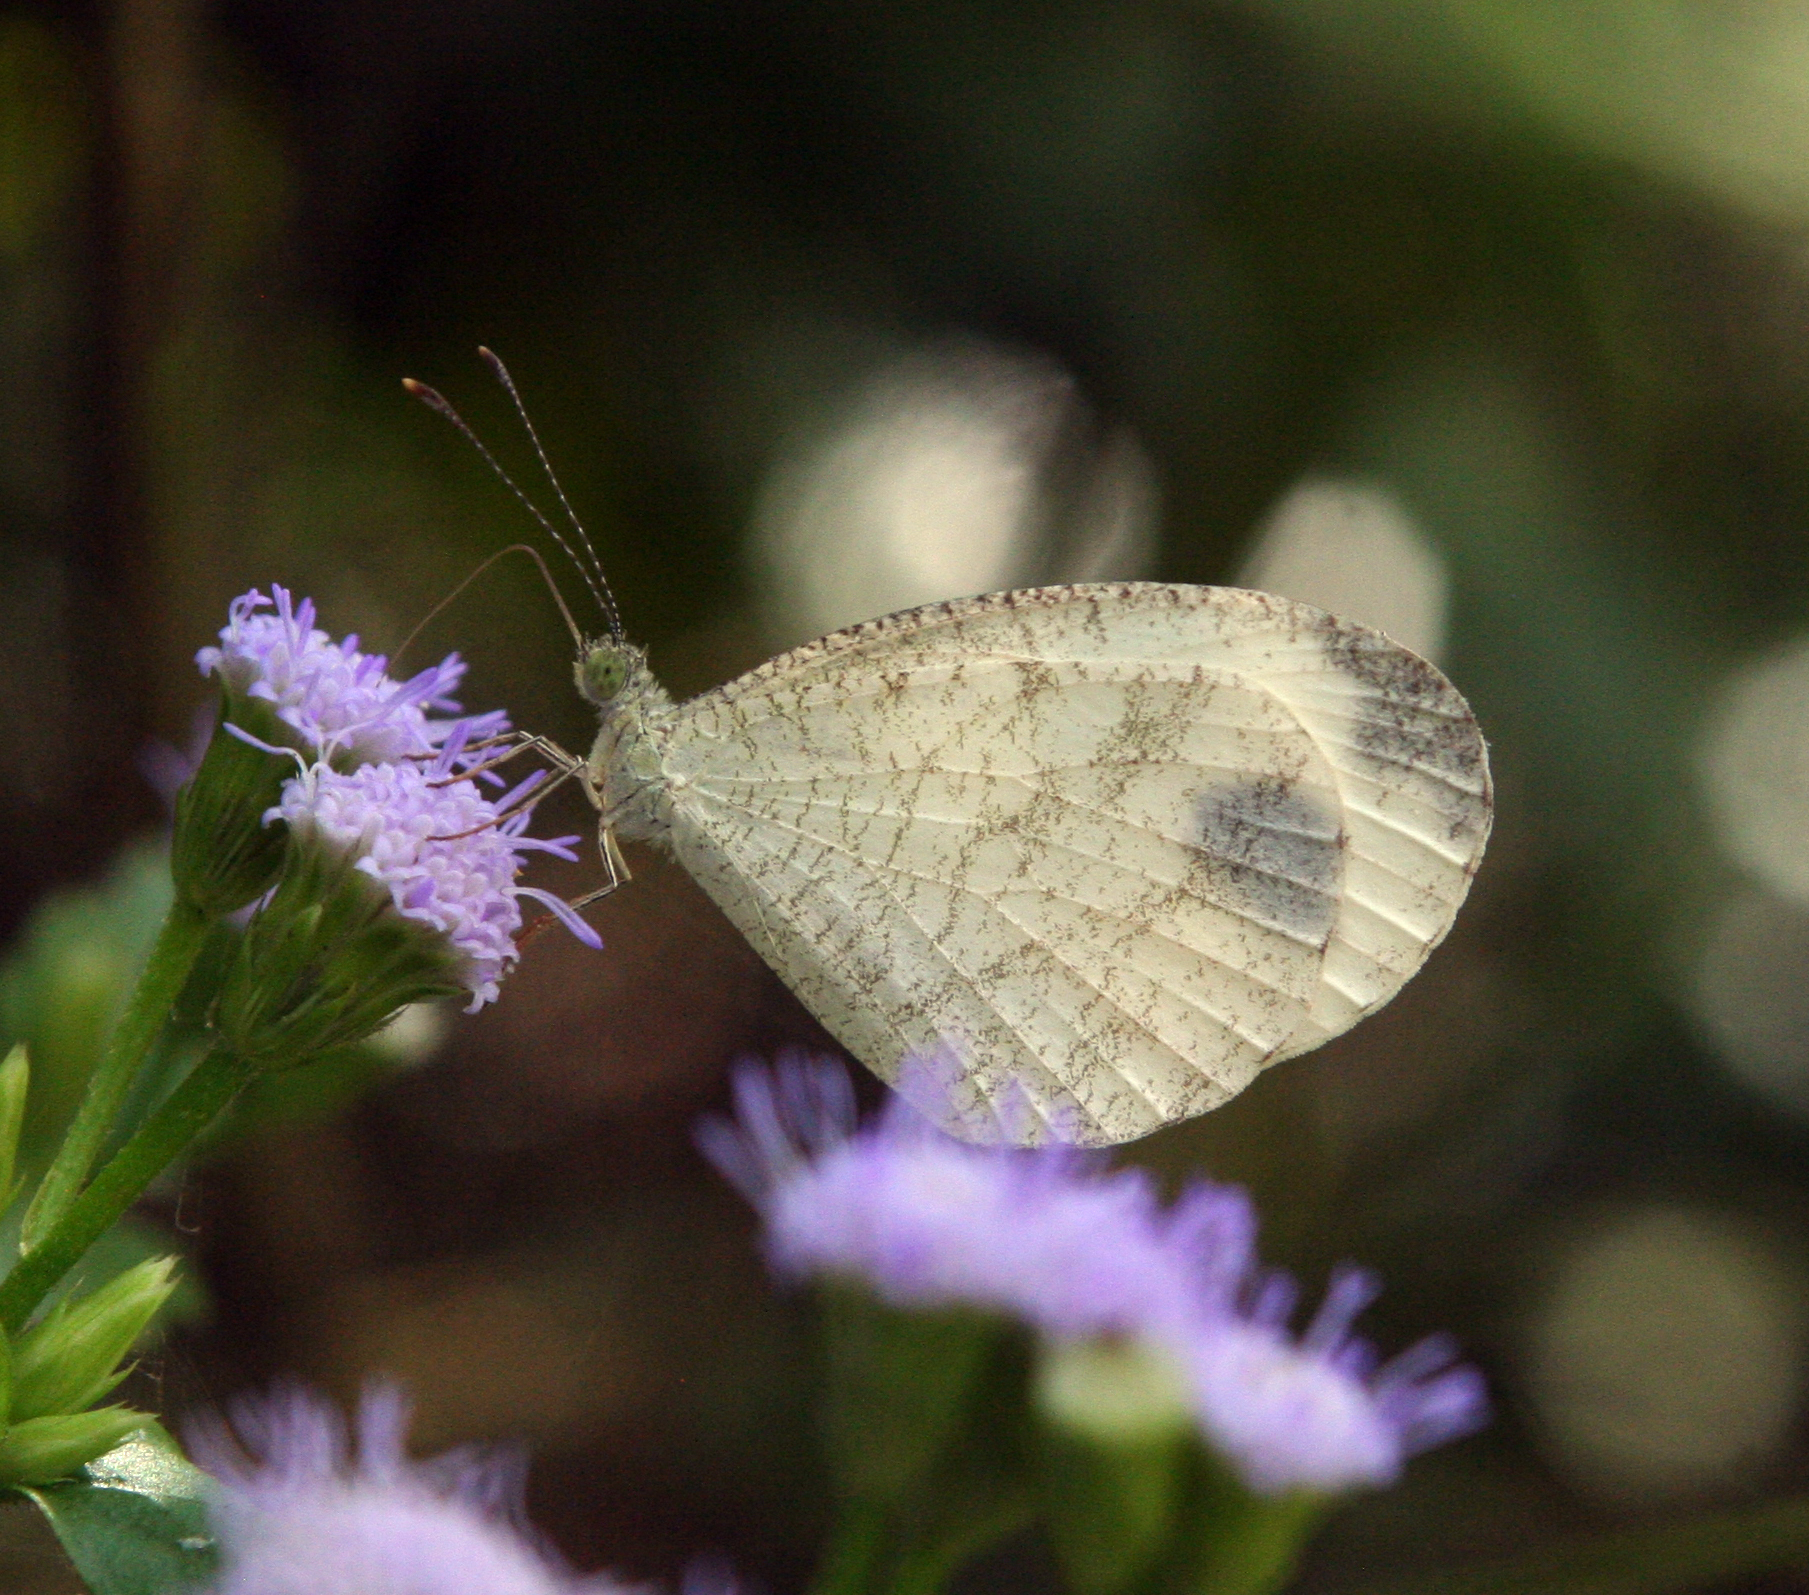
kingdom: Animalia
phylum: Arthropoda
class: Insecta
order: Lepidoptera
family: Pieridae
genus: Leptosia
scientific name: Leptosia nina
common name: Psyche
